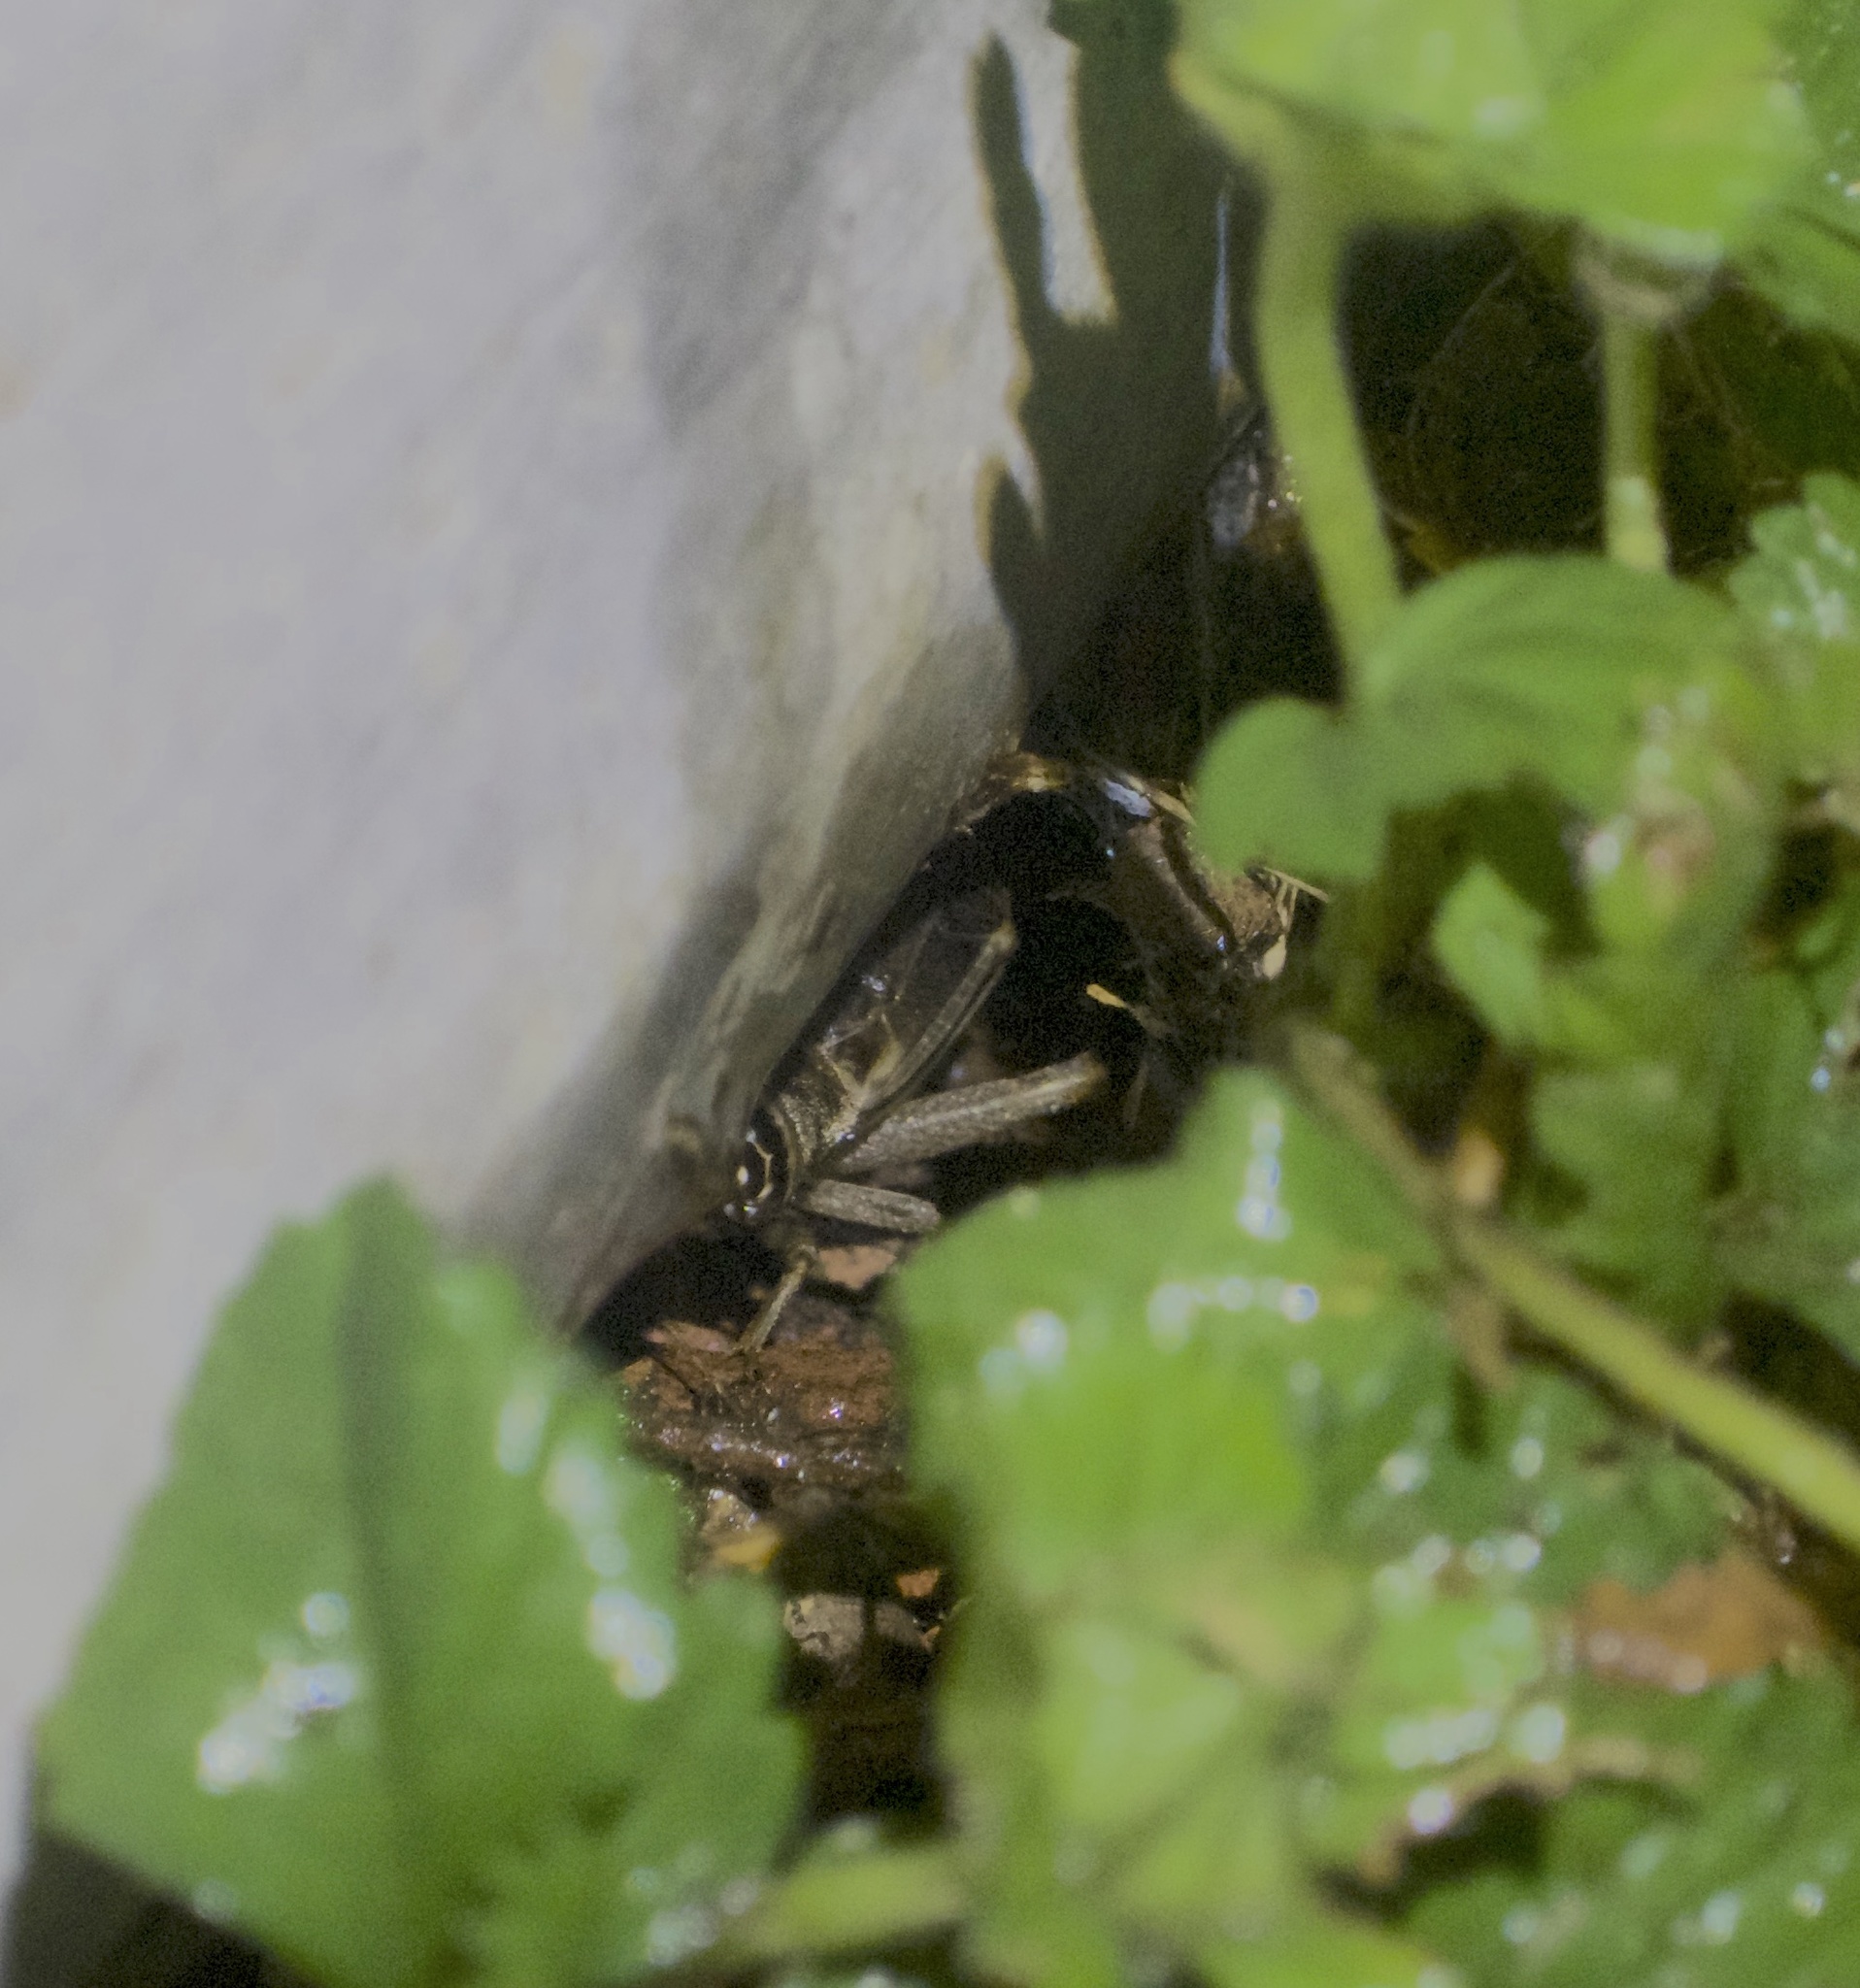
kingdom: Animalia
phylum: Arthropoda
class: Insecta
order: Orthoptera
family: Gryllidae
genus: Acheta
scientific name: Acheta domesticus
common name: House cricket
